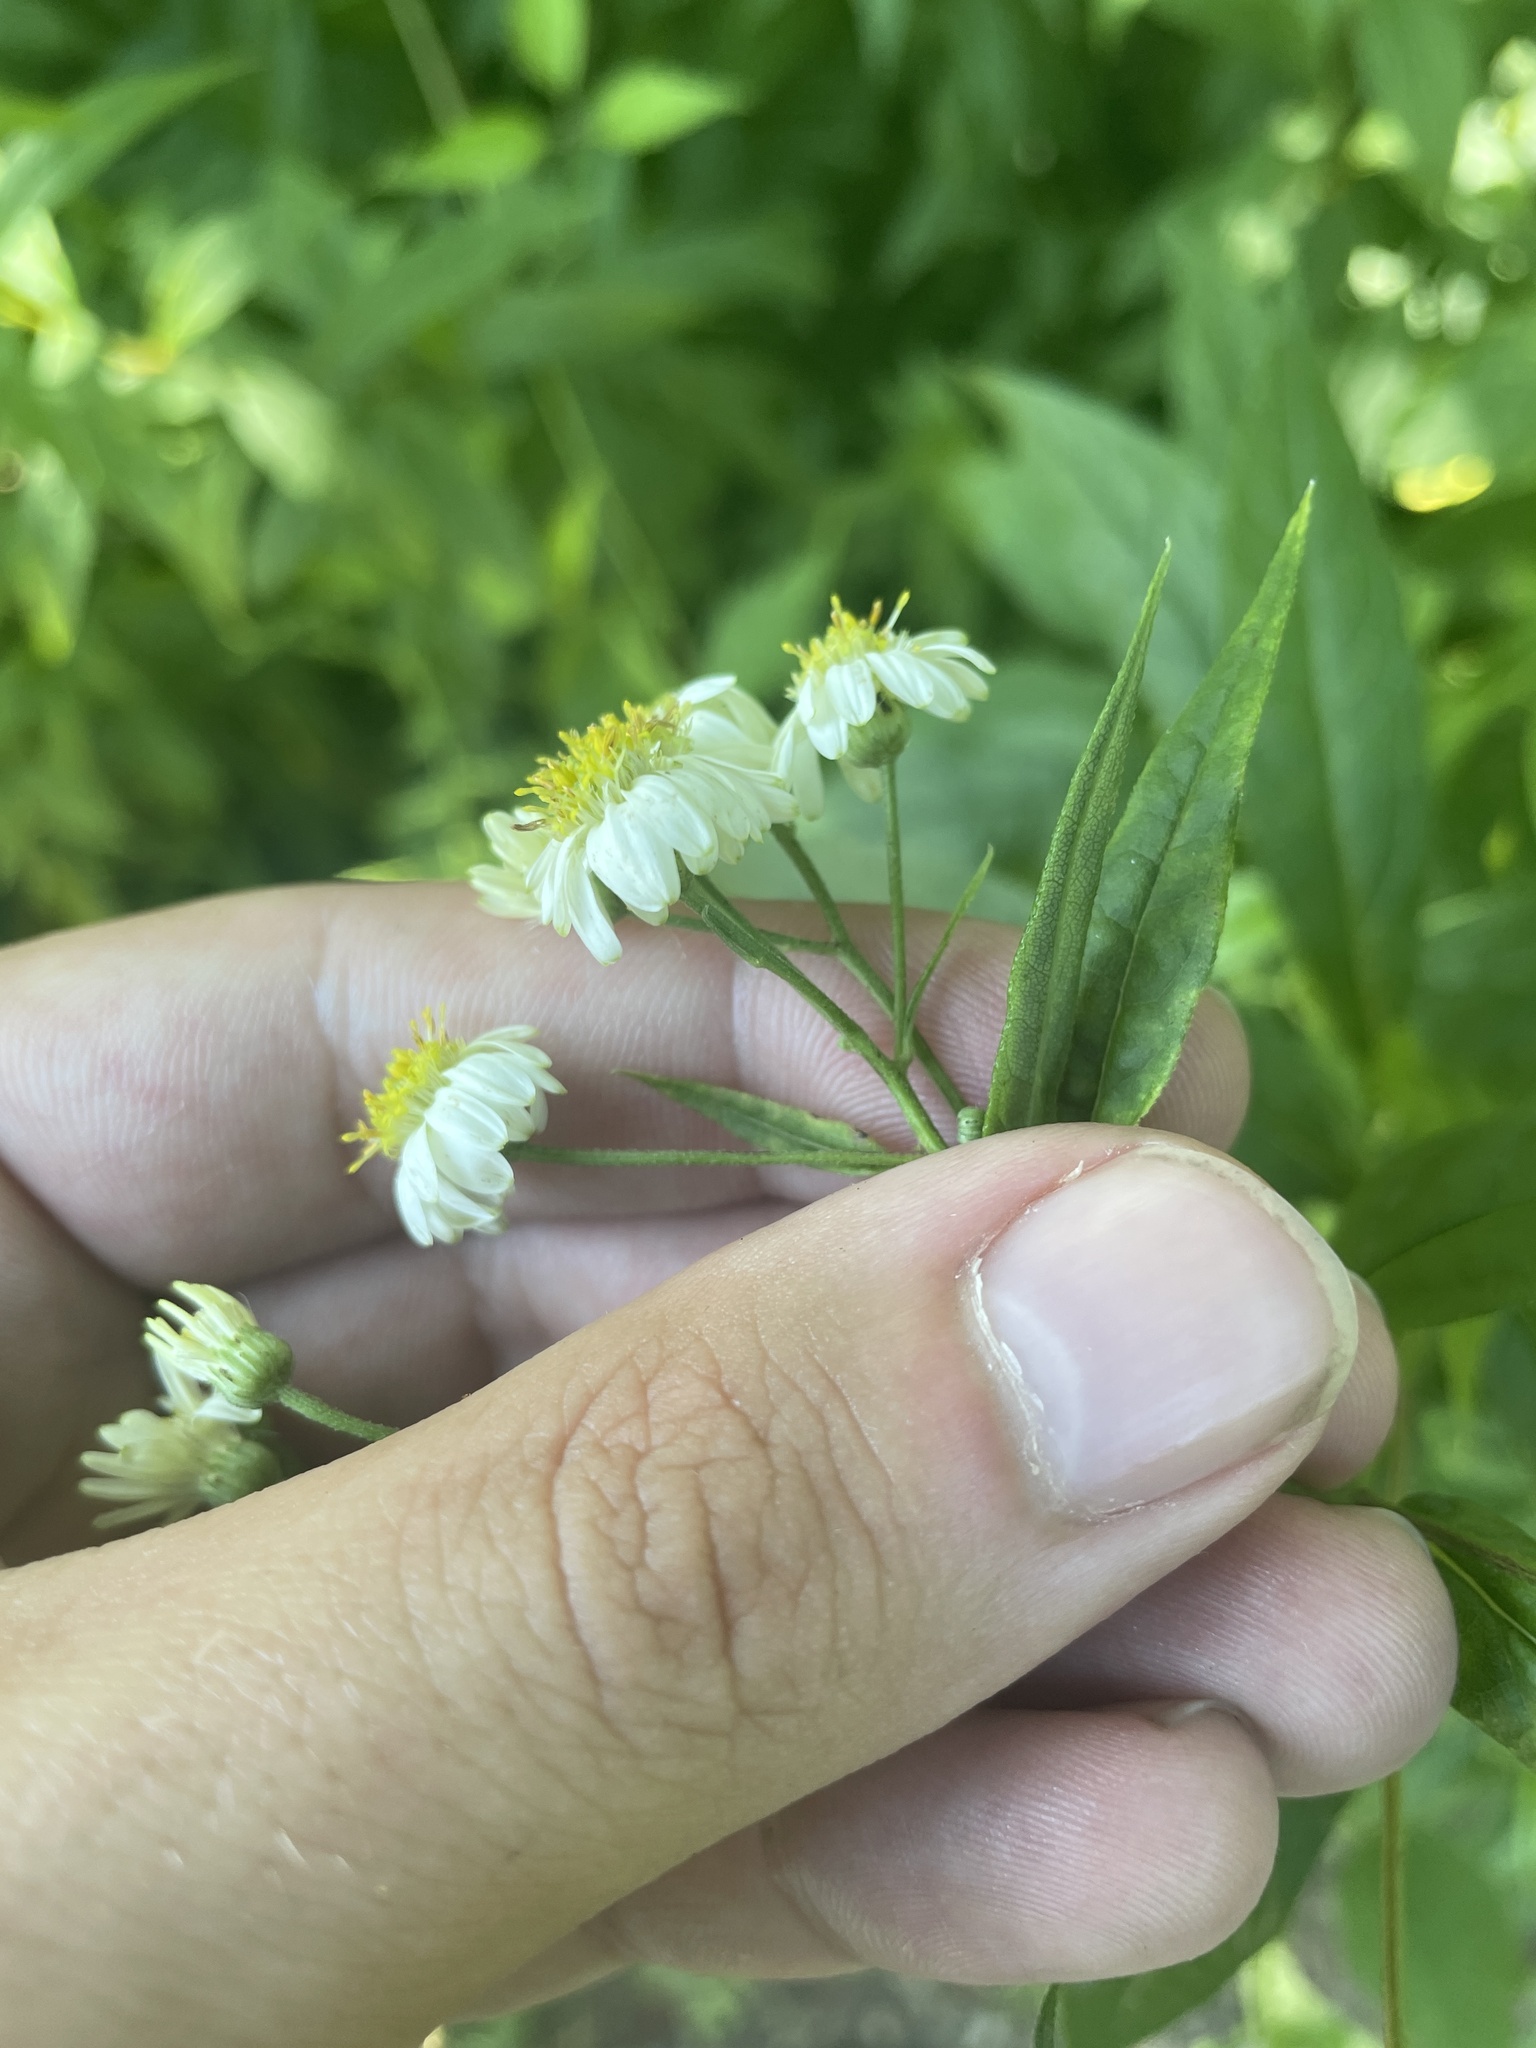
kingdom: Plantae
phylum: Tracheophyta
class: Magnoliopsida
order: Asterales
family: Asteraceae
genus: Doellingeria
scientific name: Doellingeria umbellata
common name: Flat-top white aster
